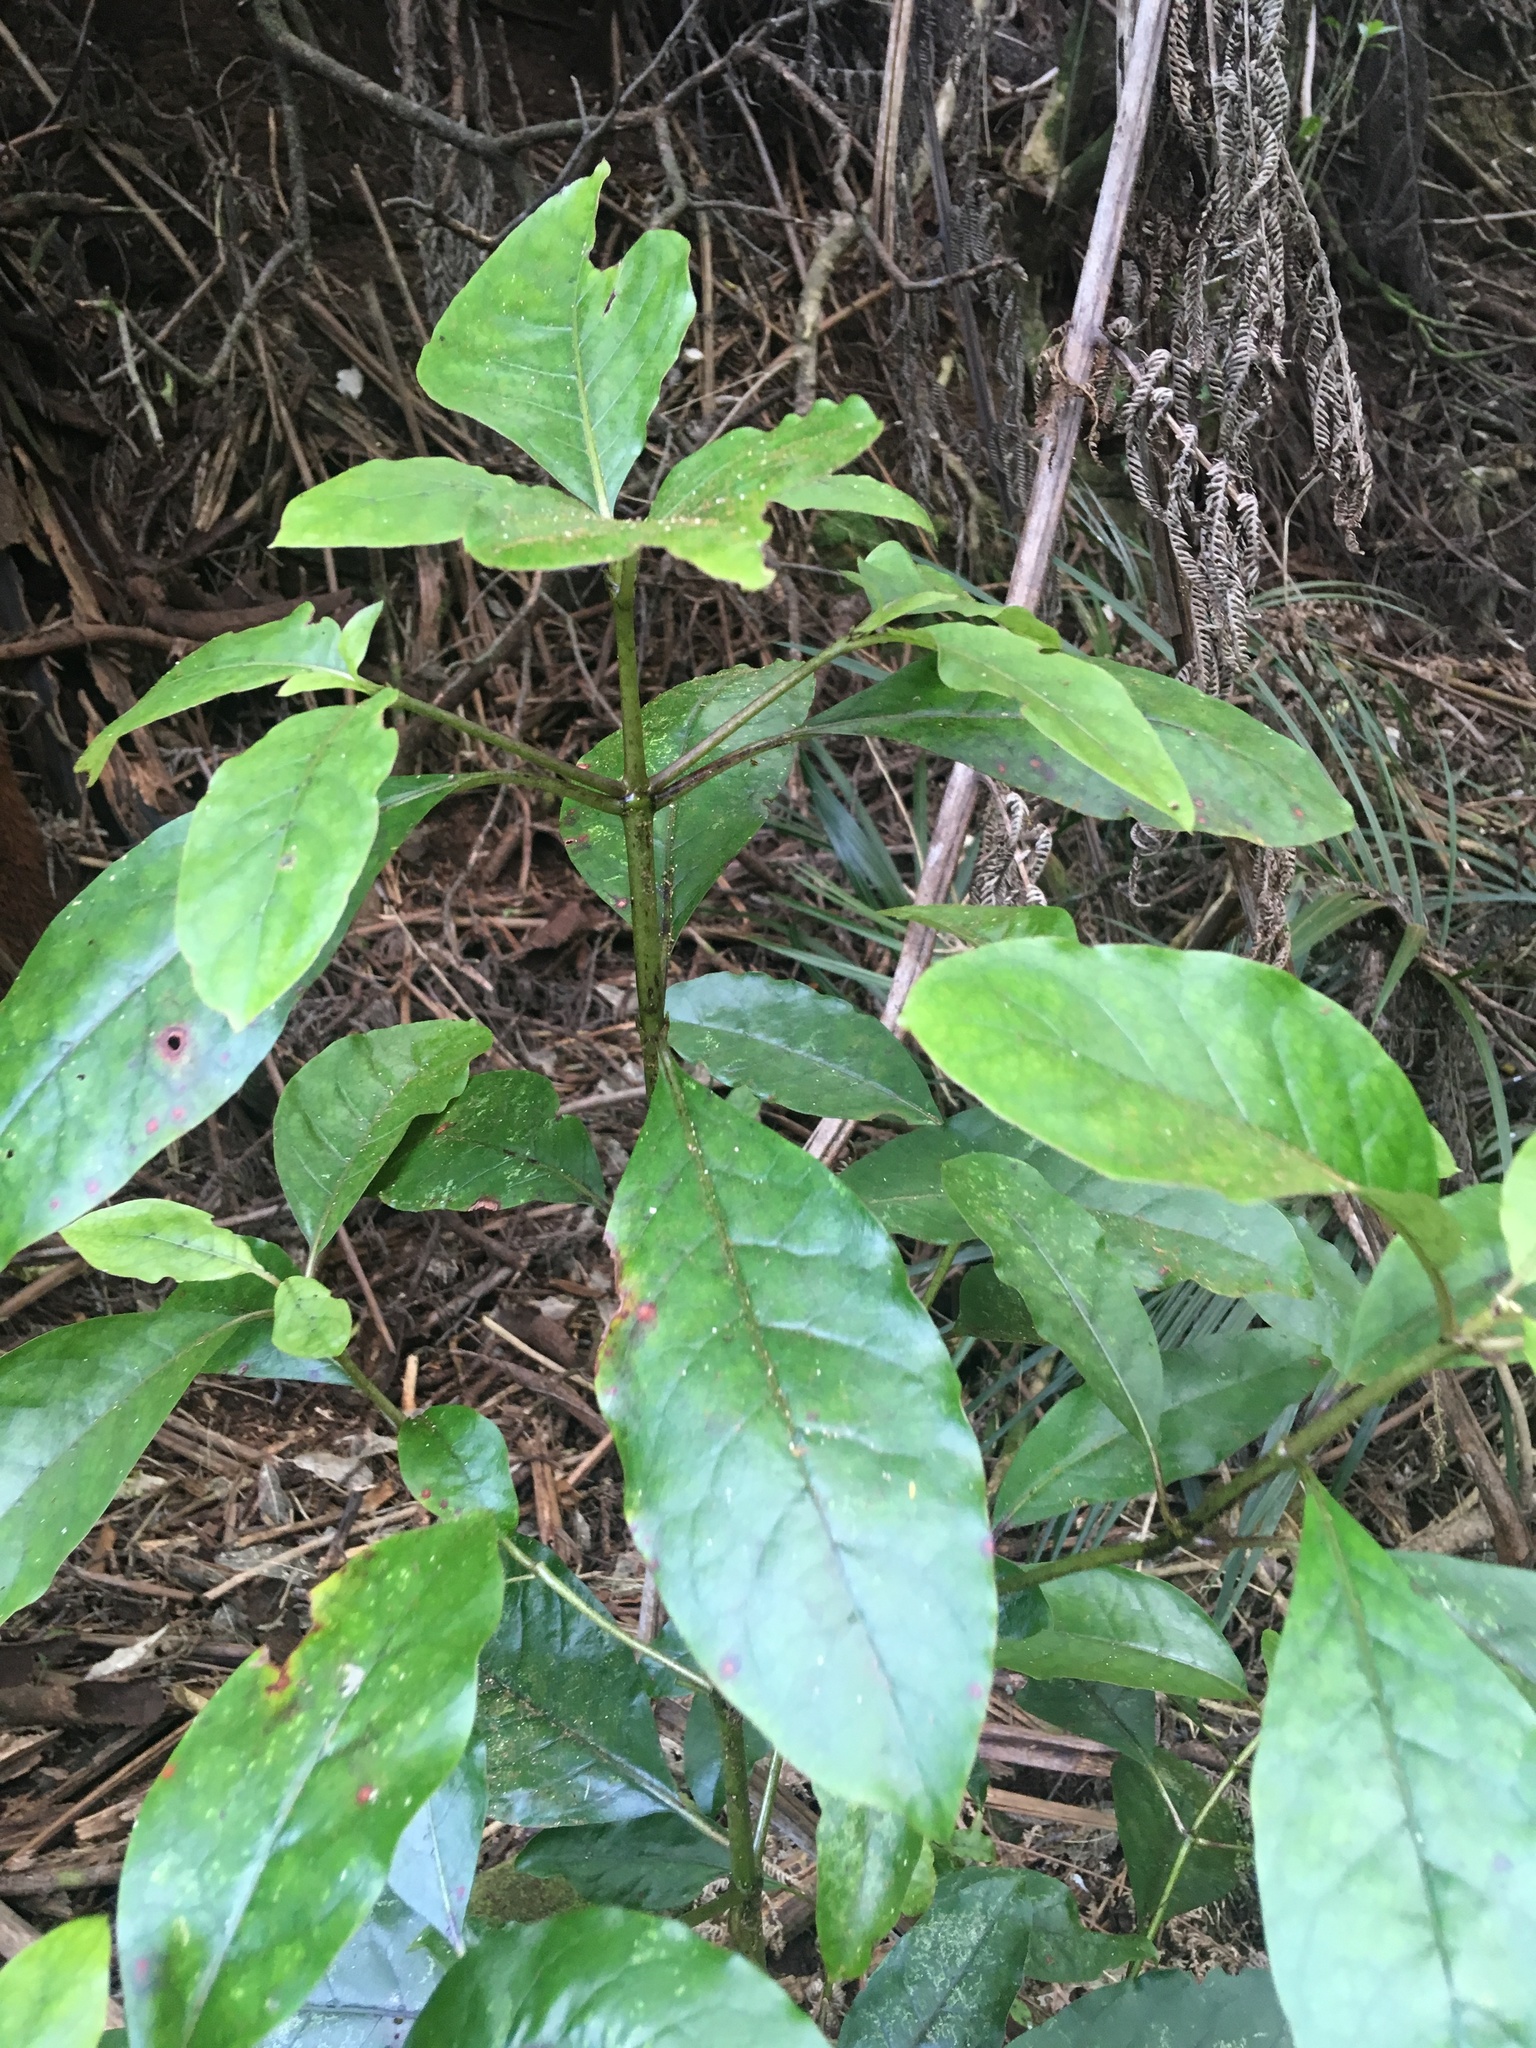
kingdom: Plantae
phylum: Tracheophyta
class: Magnoliopsida
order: Gentianales
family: Rubiaceae
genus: Coprosma
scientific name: Coprosma autumnalis
